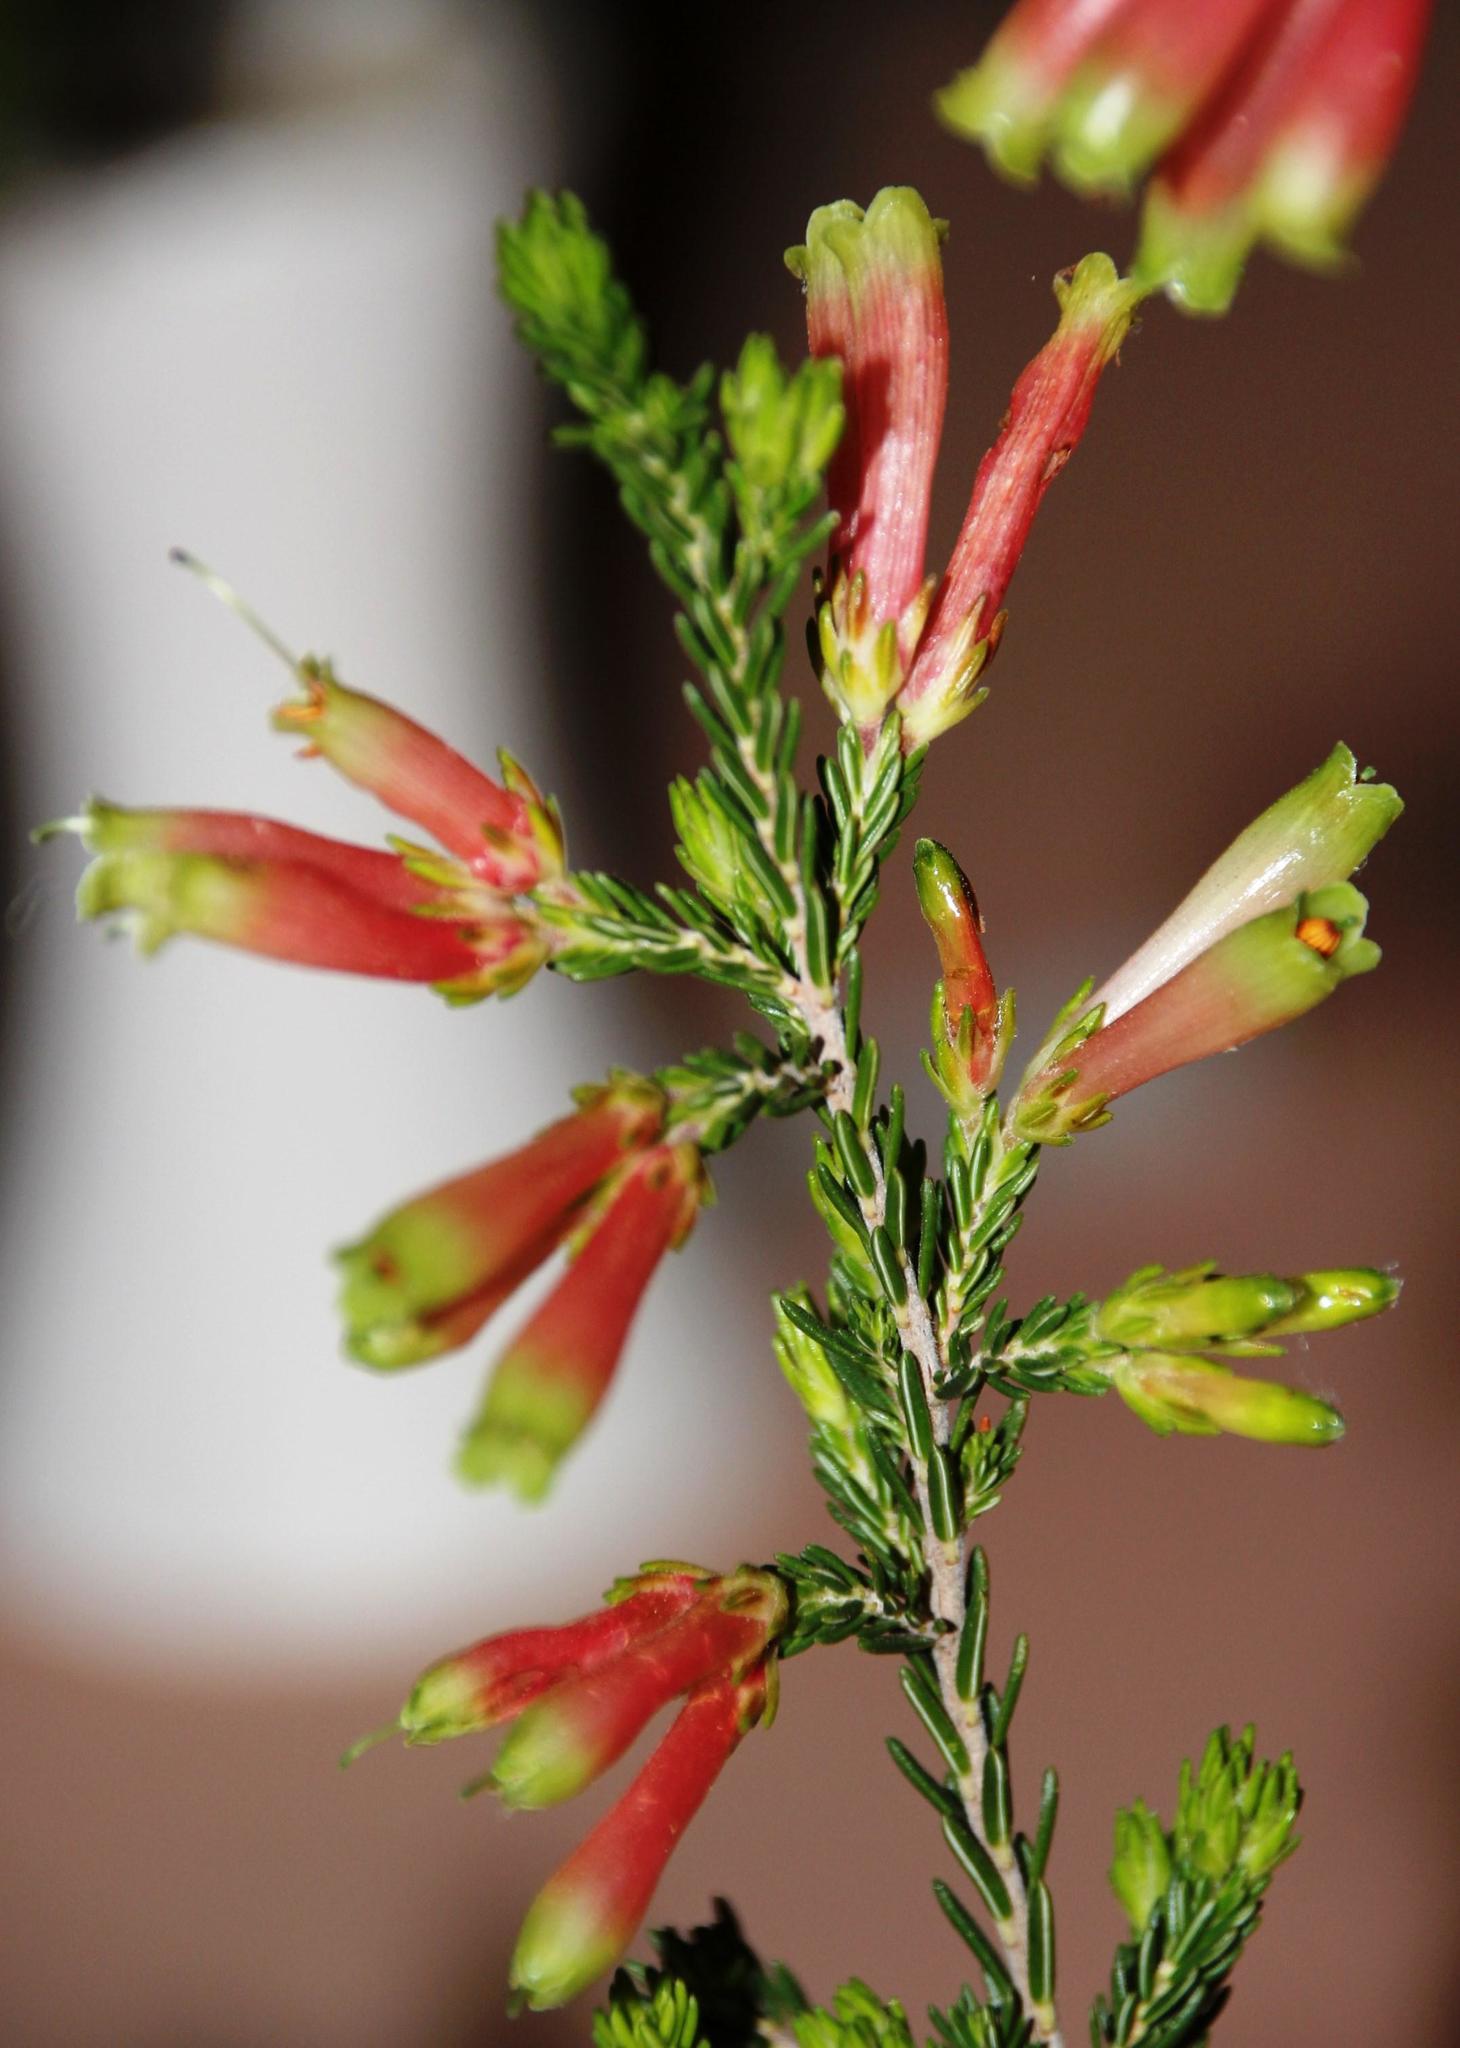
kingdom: Plantae
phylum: Tracheophyta
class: Magnoliopsida
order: Ericales
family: Ericaceae
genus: Erica
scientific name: Erica versicolor
